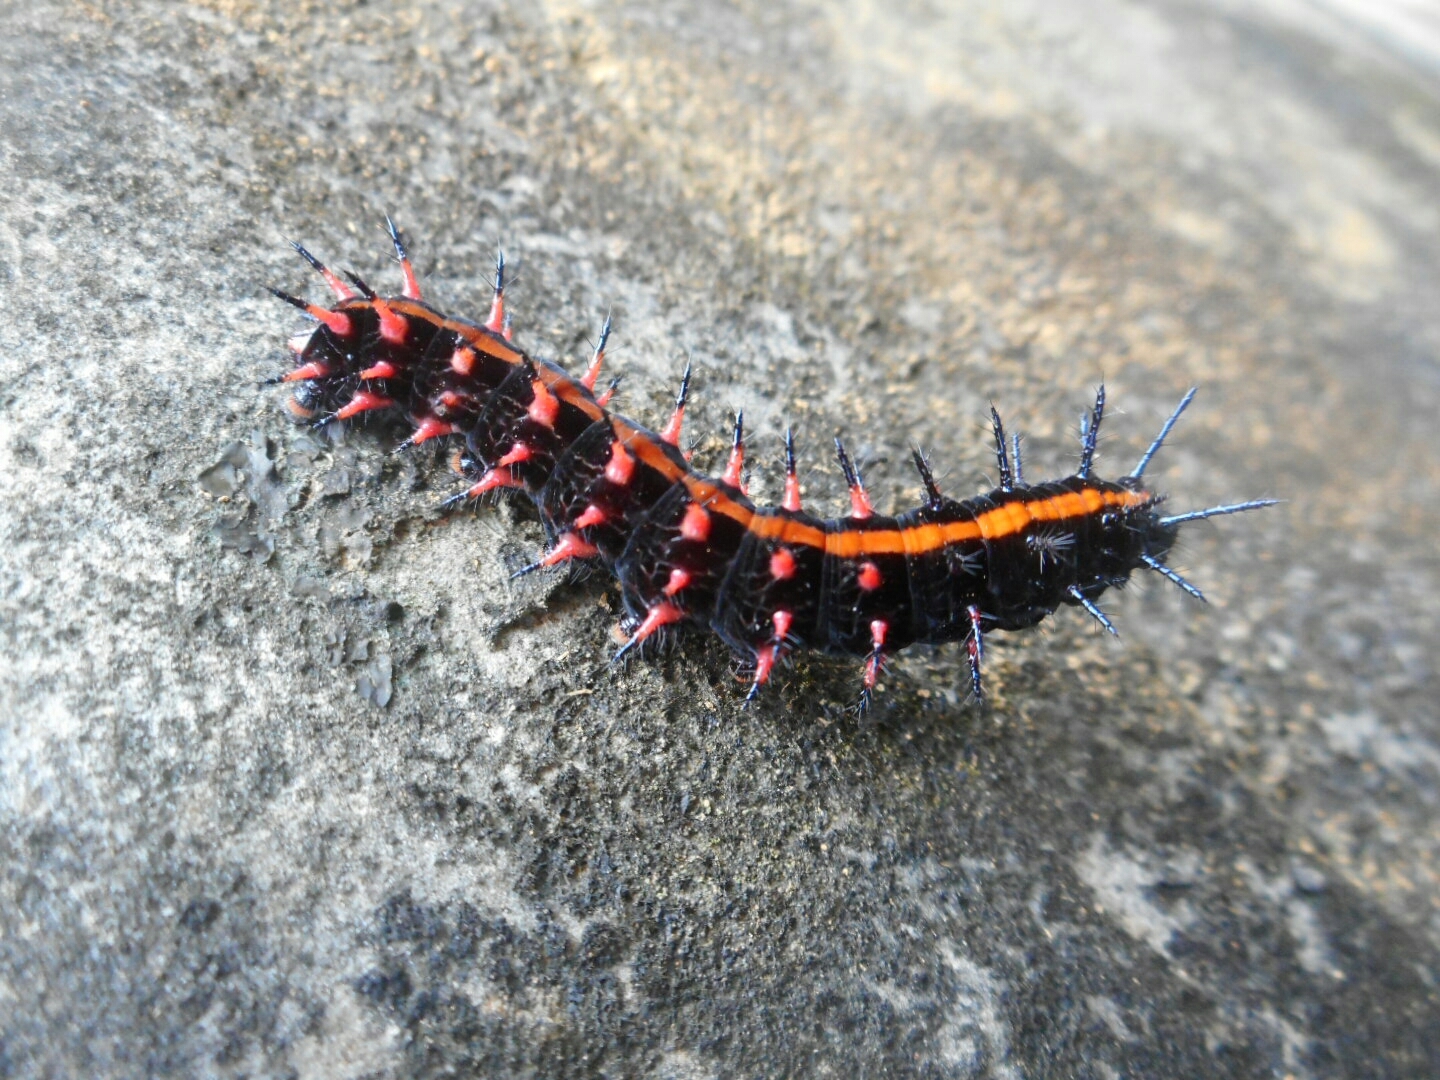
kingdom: Animalia
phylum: Arthropoda
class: Insecta
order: Lepidoptera
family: Nymphalidae
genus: Argynnis
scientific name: Argynnis hyperbius
